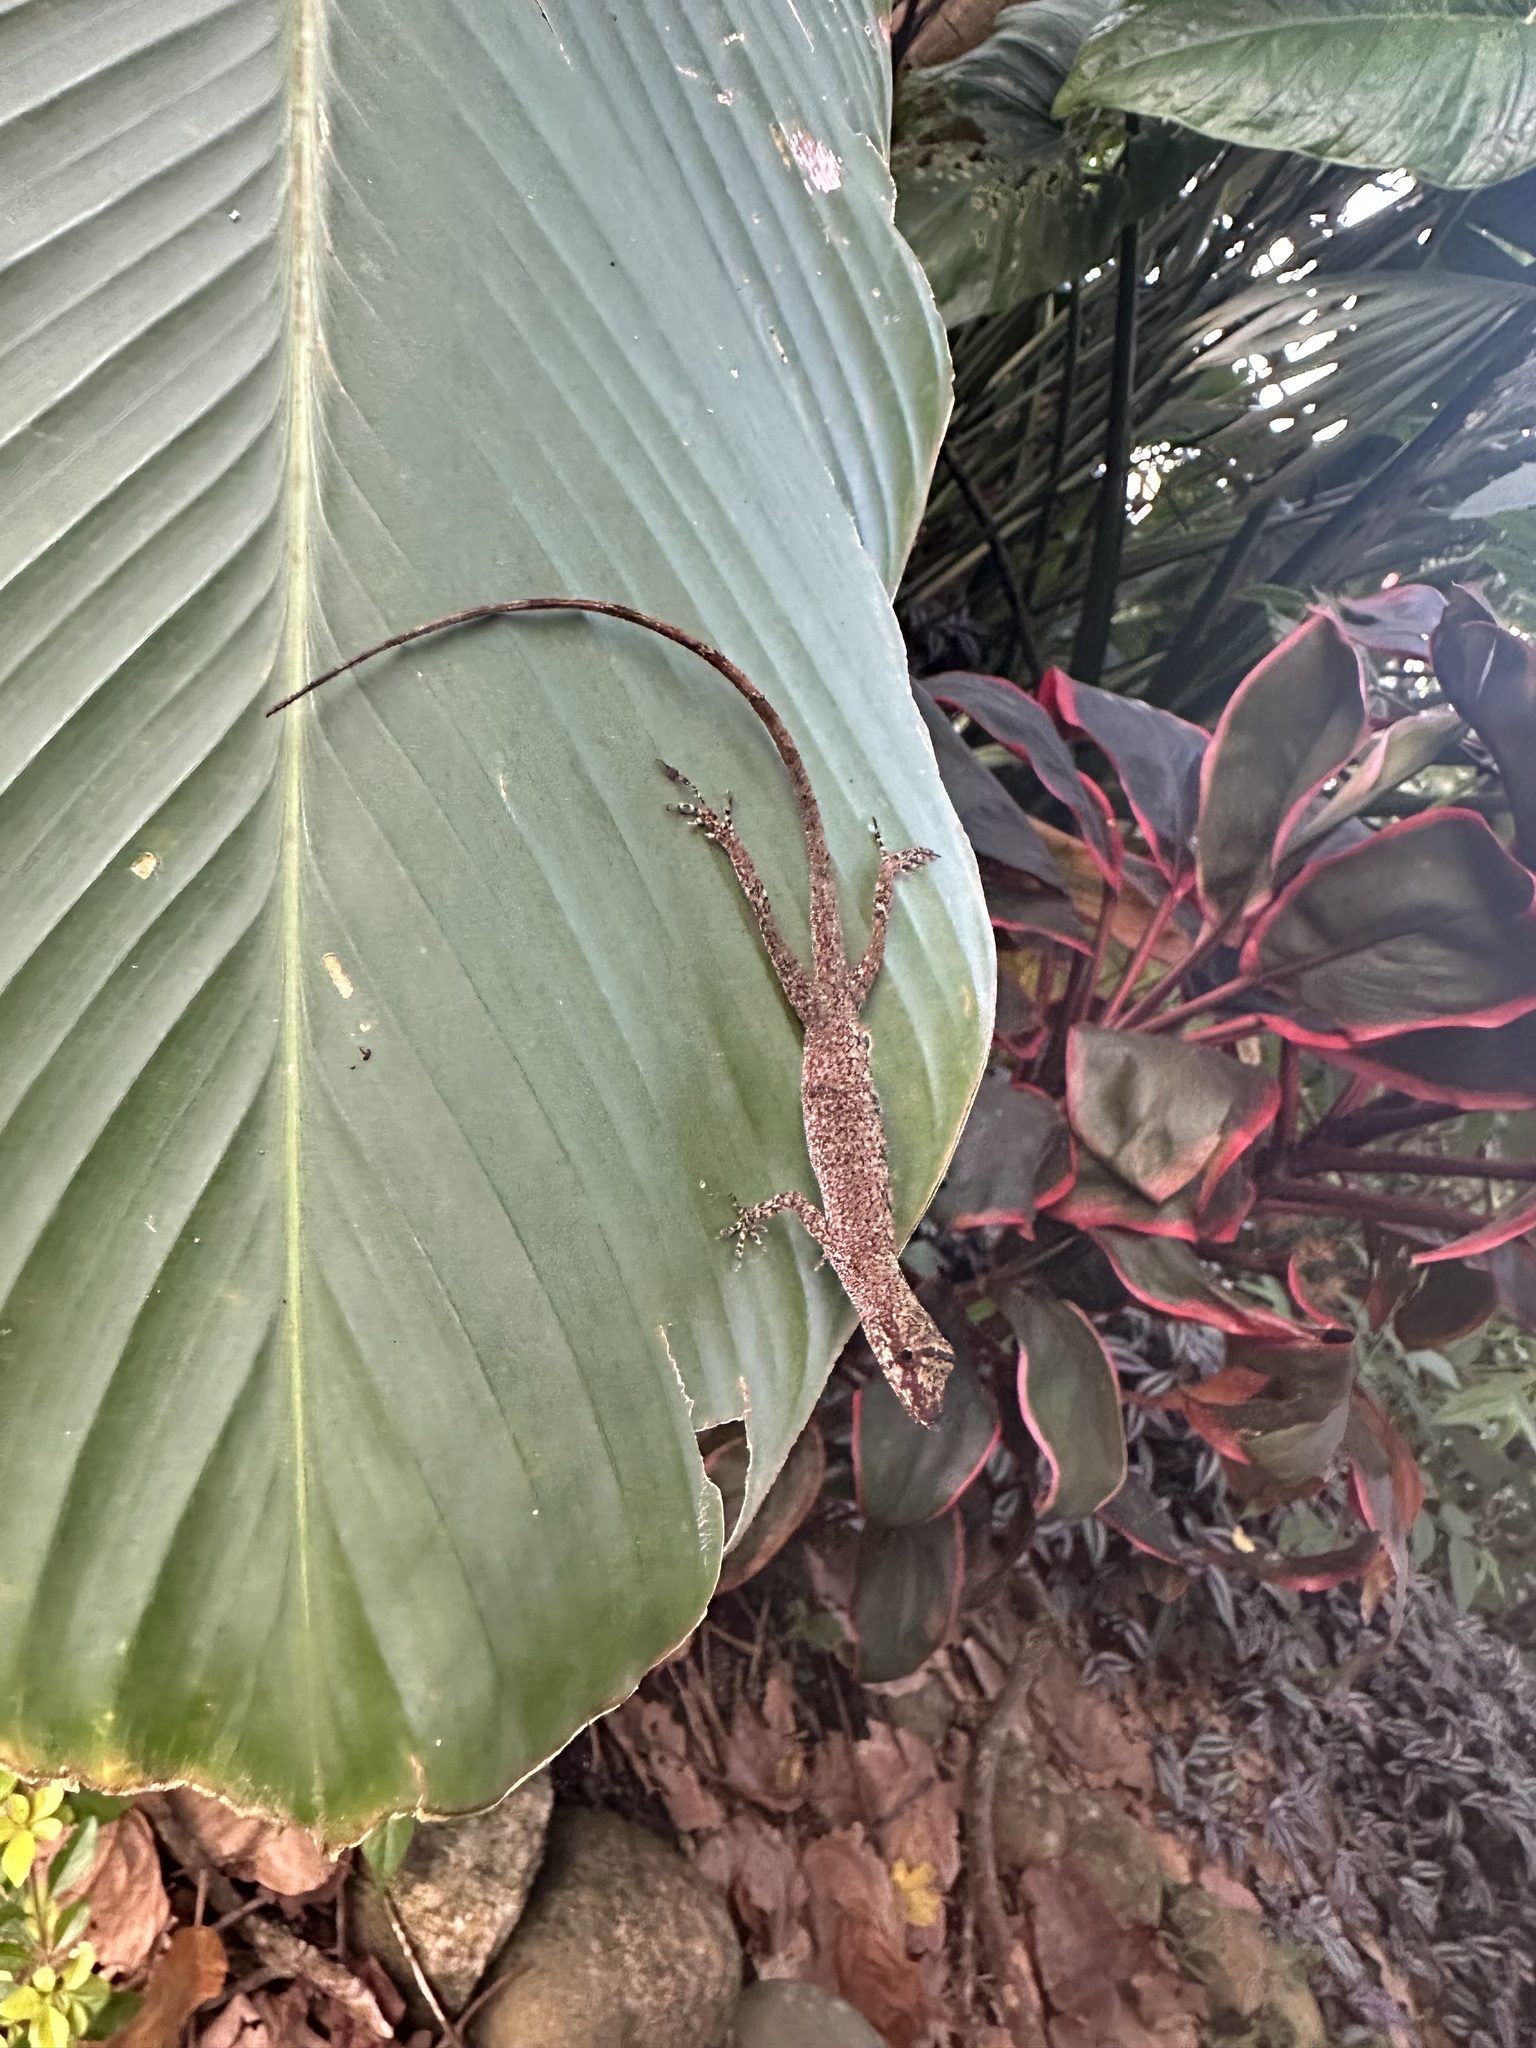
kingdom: Animalia
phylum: Chordata
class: Squamata
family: Dactyloidae
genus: Anolis
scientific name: Anolis fuscoauratus
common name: Brown-eared anole
